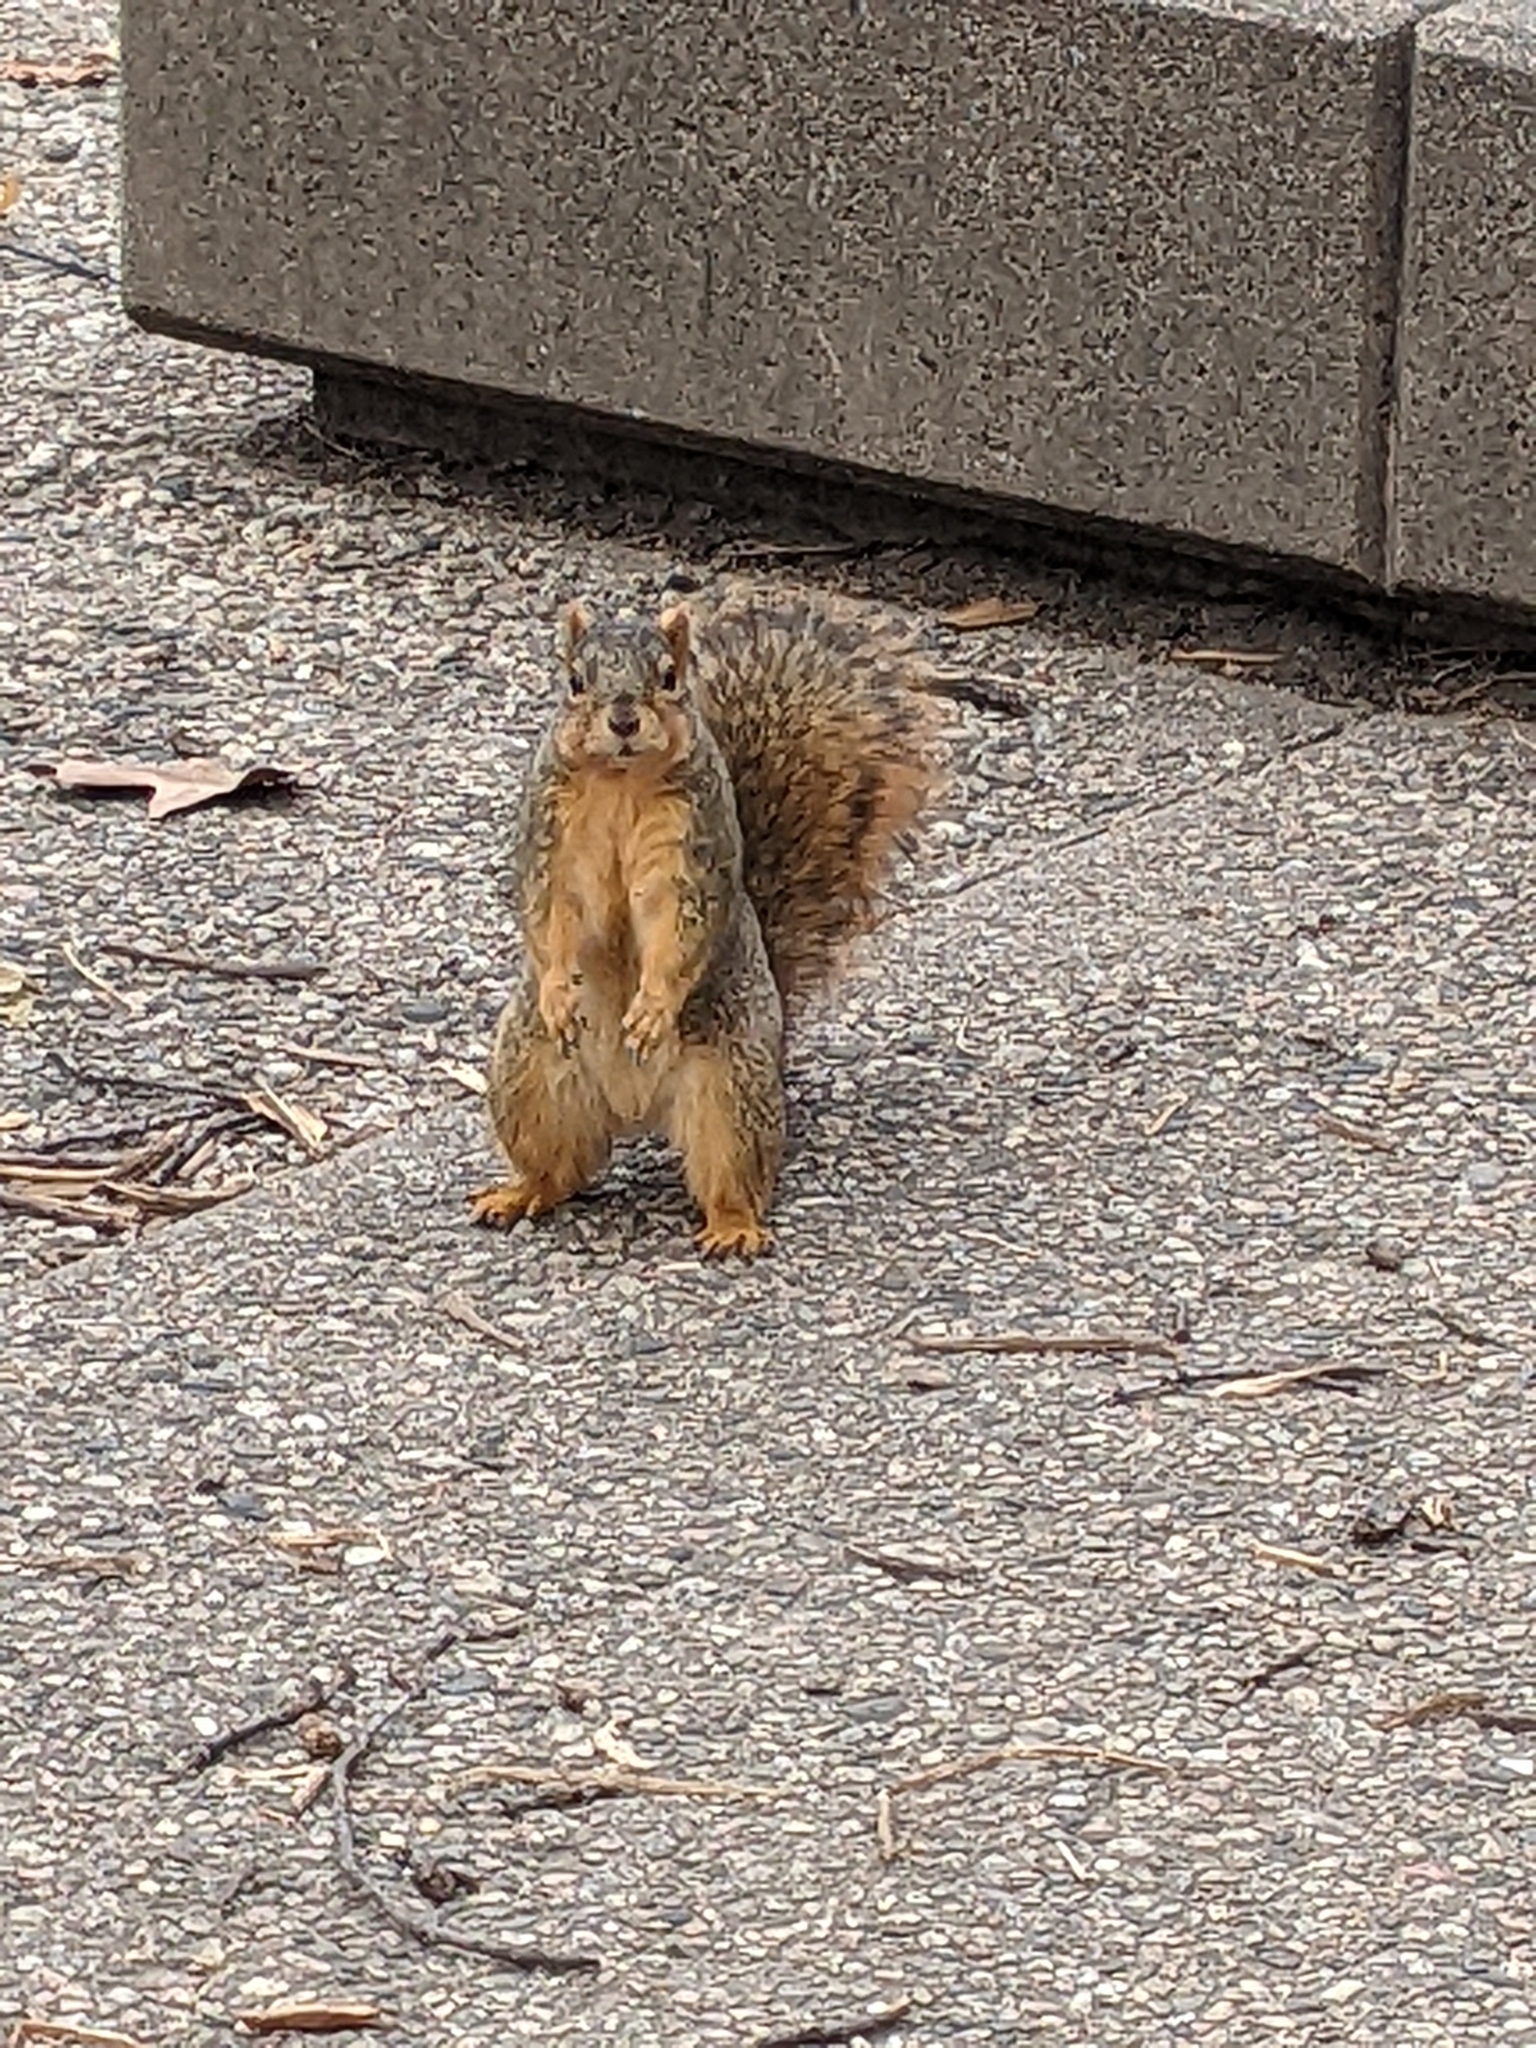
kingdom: Animalia
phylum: Chordata
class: Mammalia
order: Rodentia
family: Sciuridae
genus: Sciurus
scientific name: Sciurus niger
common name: Fox squirrel
